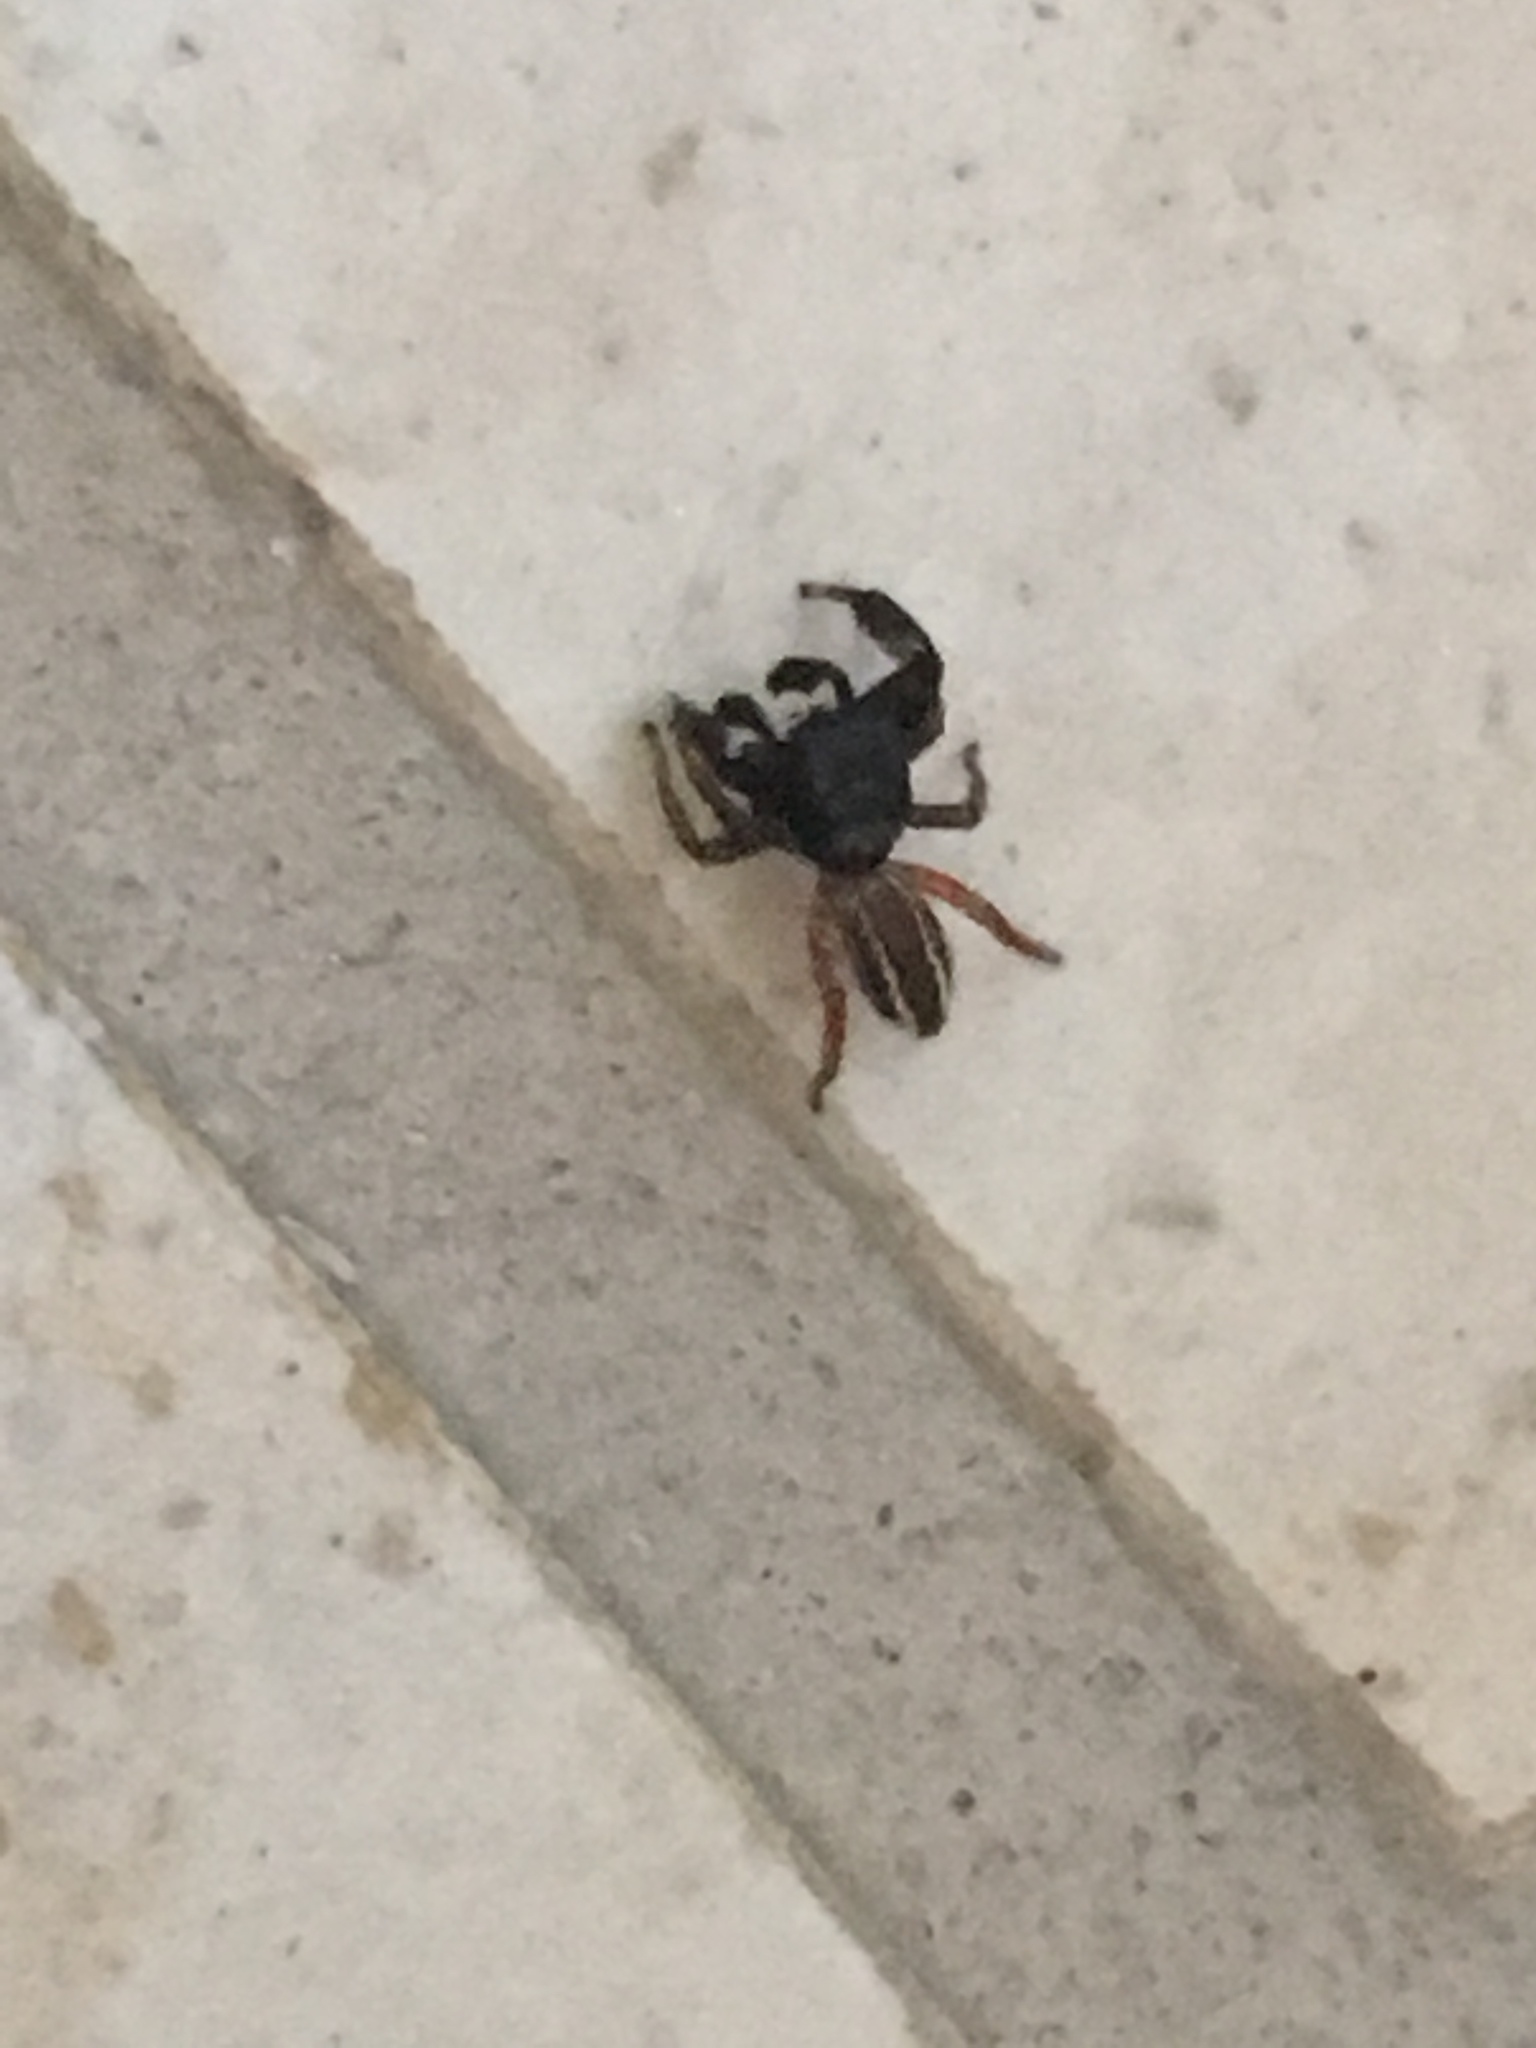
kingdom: Animalia
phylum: Arthropoda
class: Arachnida
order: Araneae
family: Salticidae
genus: Metacyrba
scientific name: Metacyrba taeniola
